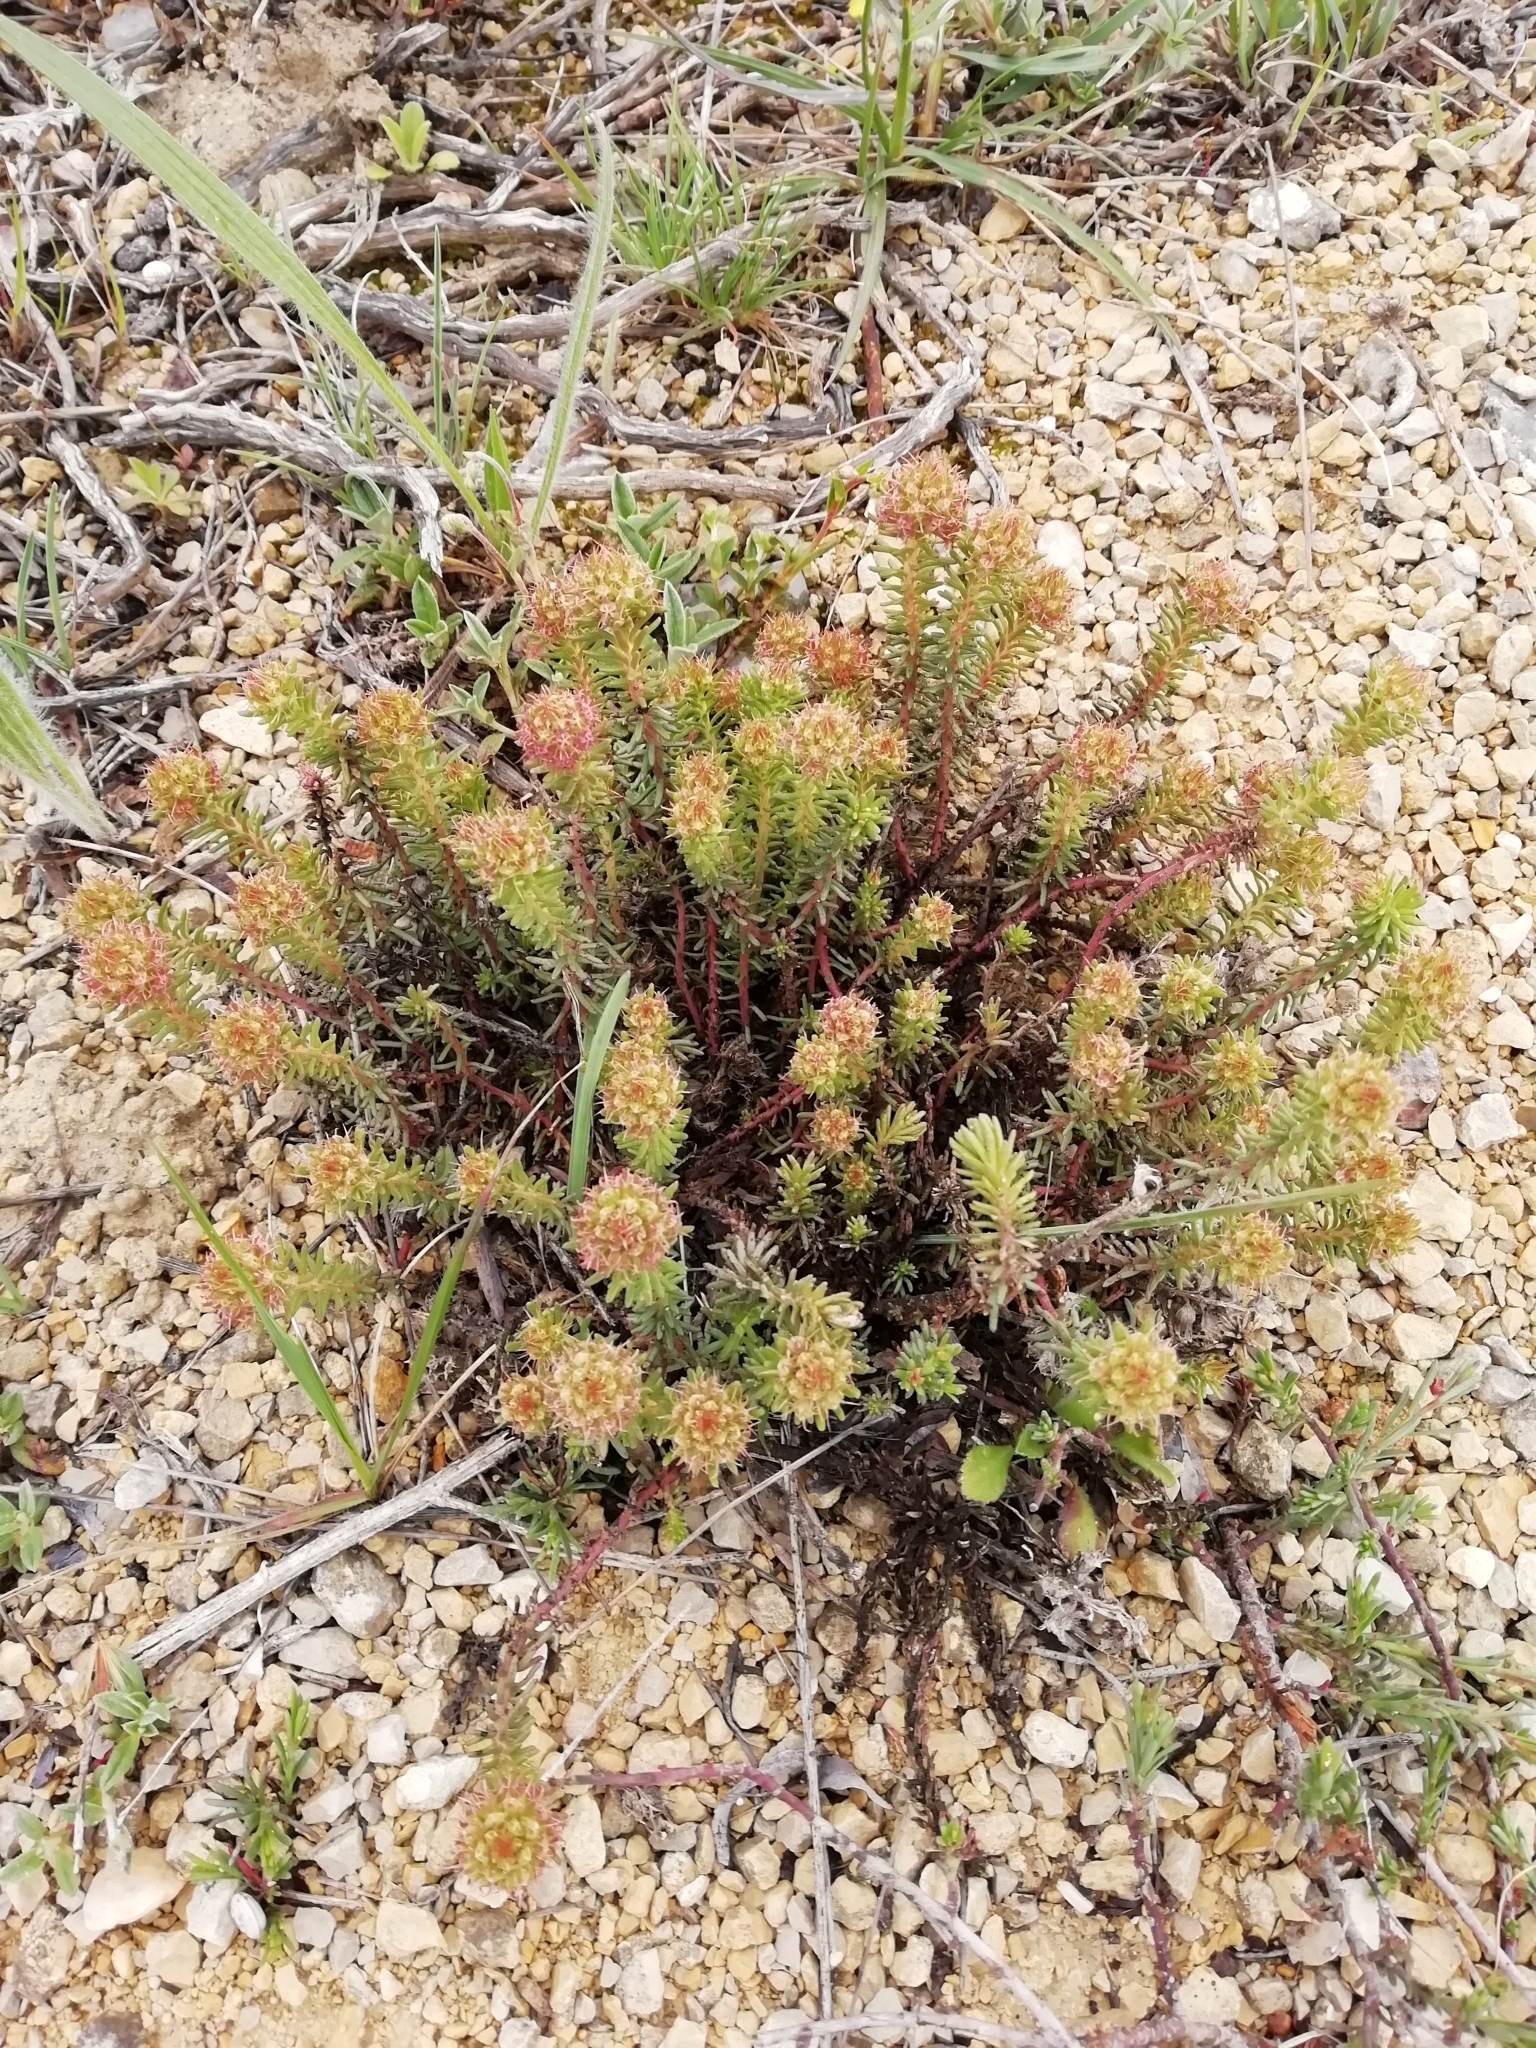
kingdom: Plantae
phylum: Tracheophyta
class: Magnoliopsida
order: Ericales
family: Primulaceae
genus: Coris
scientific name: Coris monspeliensis
